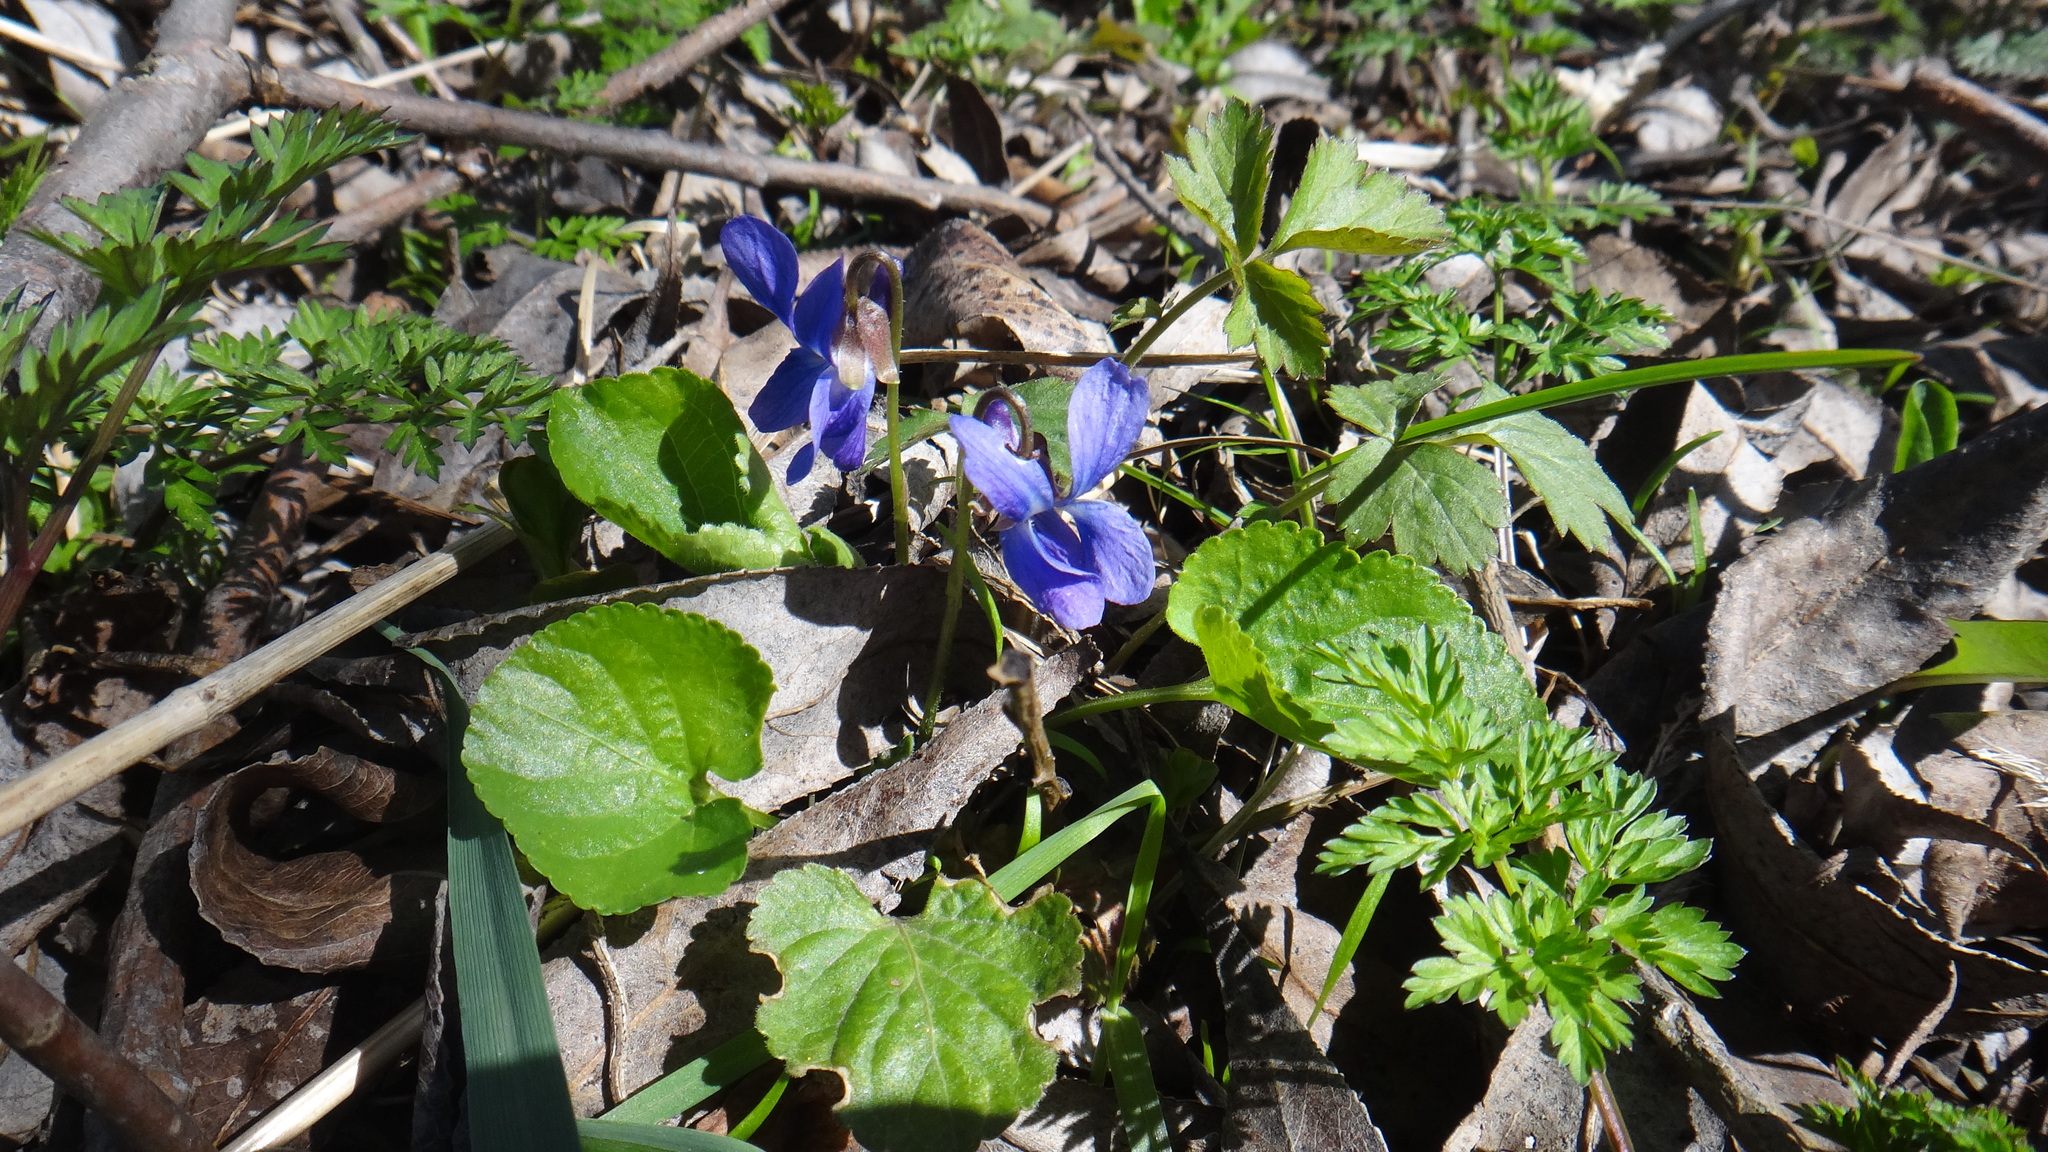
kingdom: Plantae
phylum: Tracheophyta
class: Magnoliopsida
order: Malpighiales
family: Violaceae
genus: Viola
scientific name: Viola odorata
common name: Sweet violet
